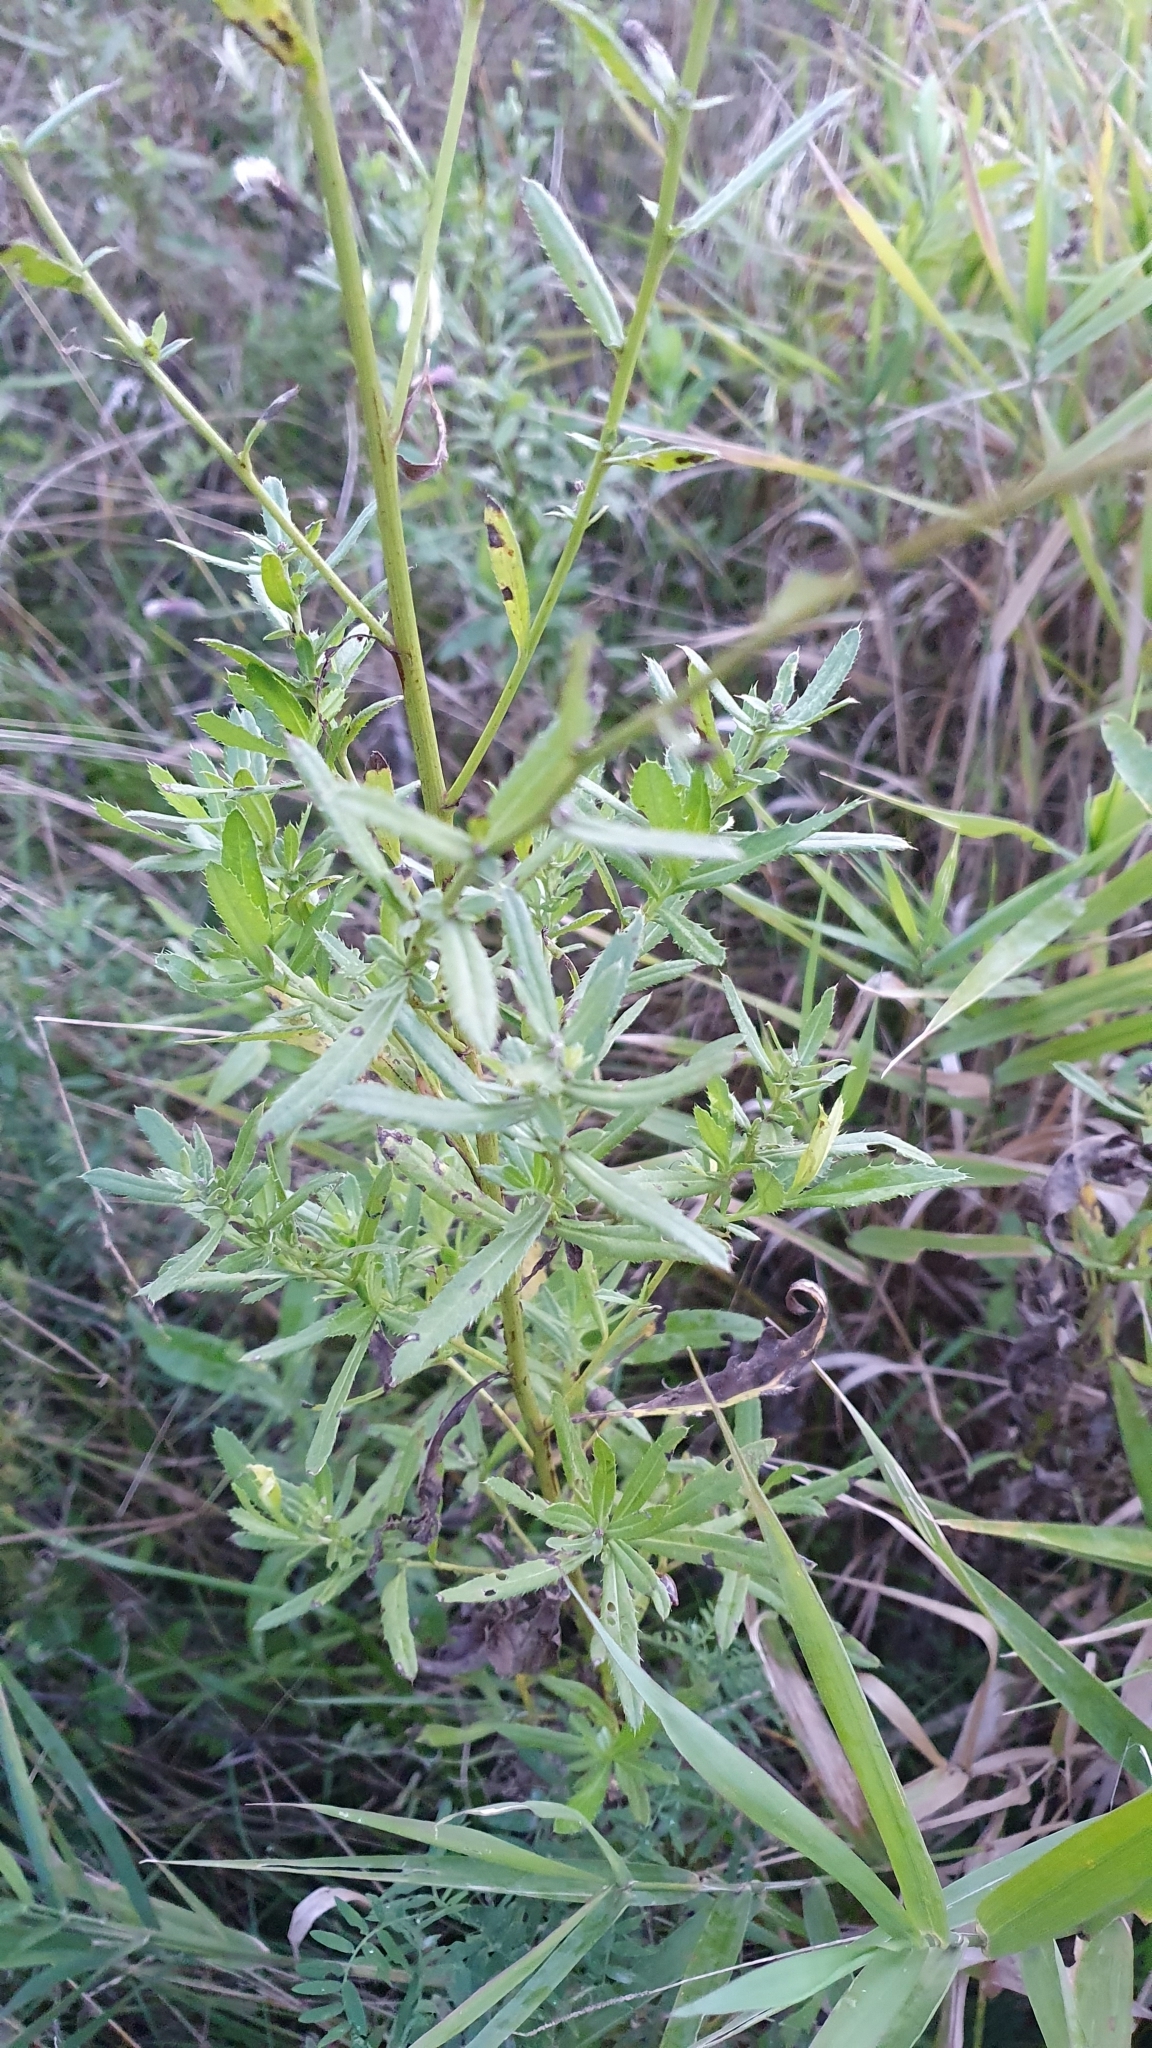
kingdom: Plantae
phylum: Tracheophyta
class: Magnoliopsida
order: Asterales
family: Asteraceae
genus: Cirsium
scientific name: Cirsium arvense
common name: Creeping thistle
